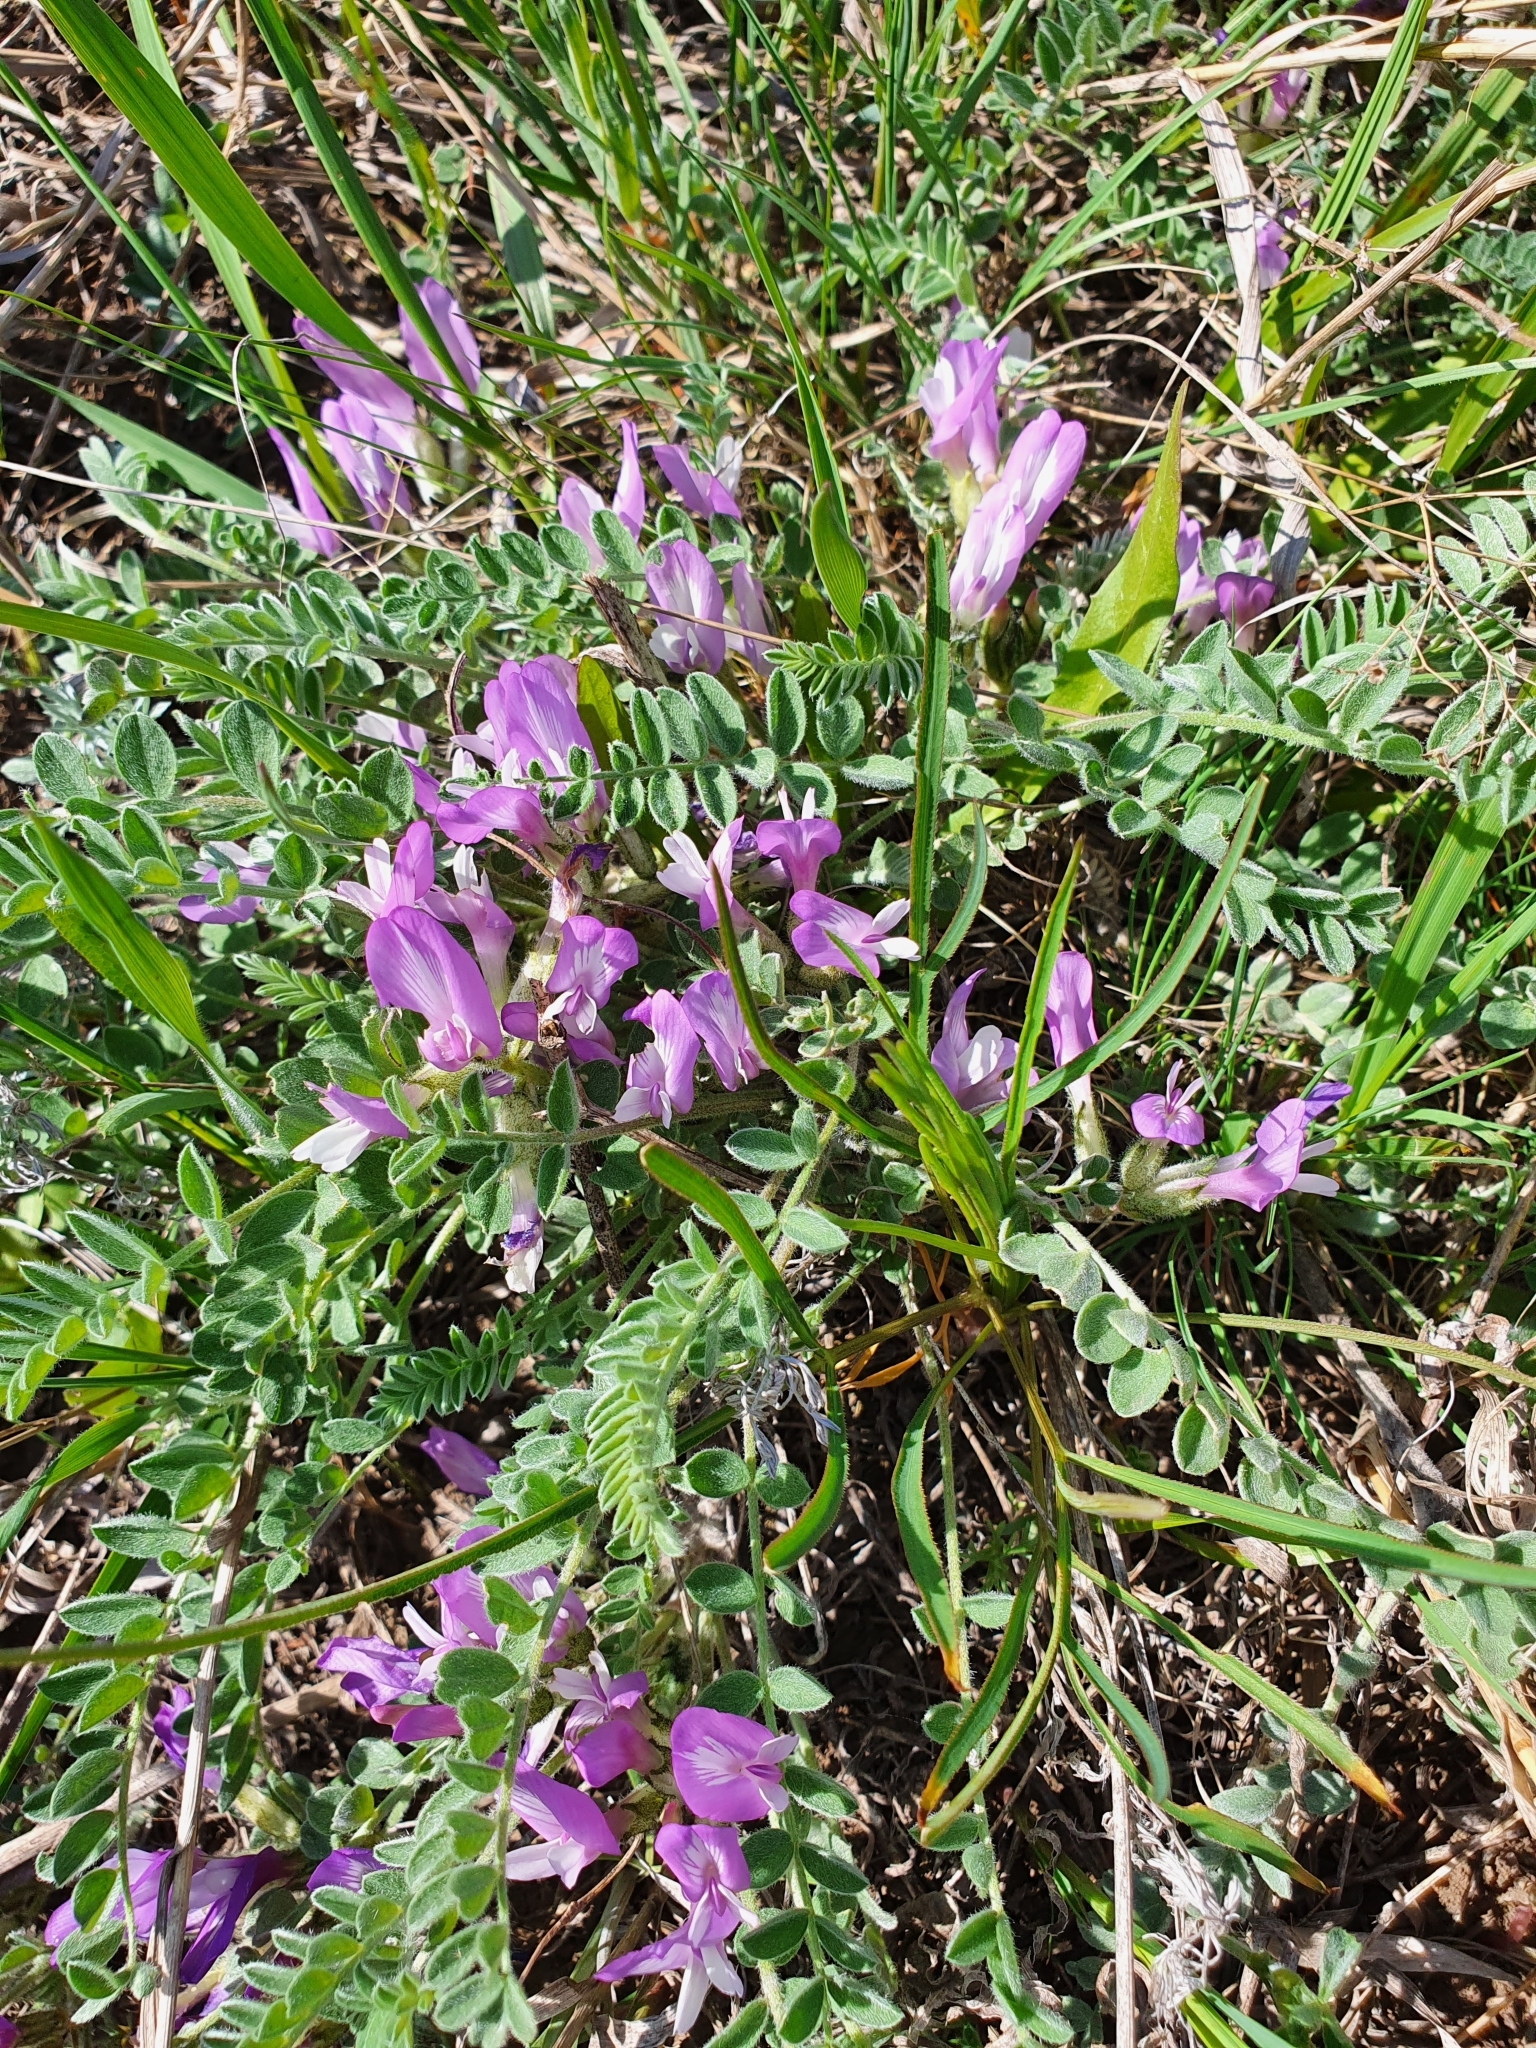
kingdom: Plantae
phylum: Tracheophyta
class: Magnoliopsida
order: Fabales
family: Fabaceae
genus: Astragalus
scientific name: Astragalus testiculatus
